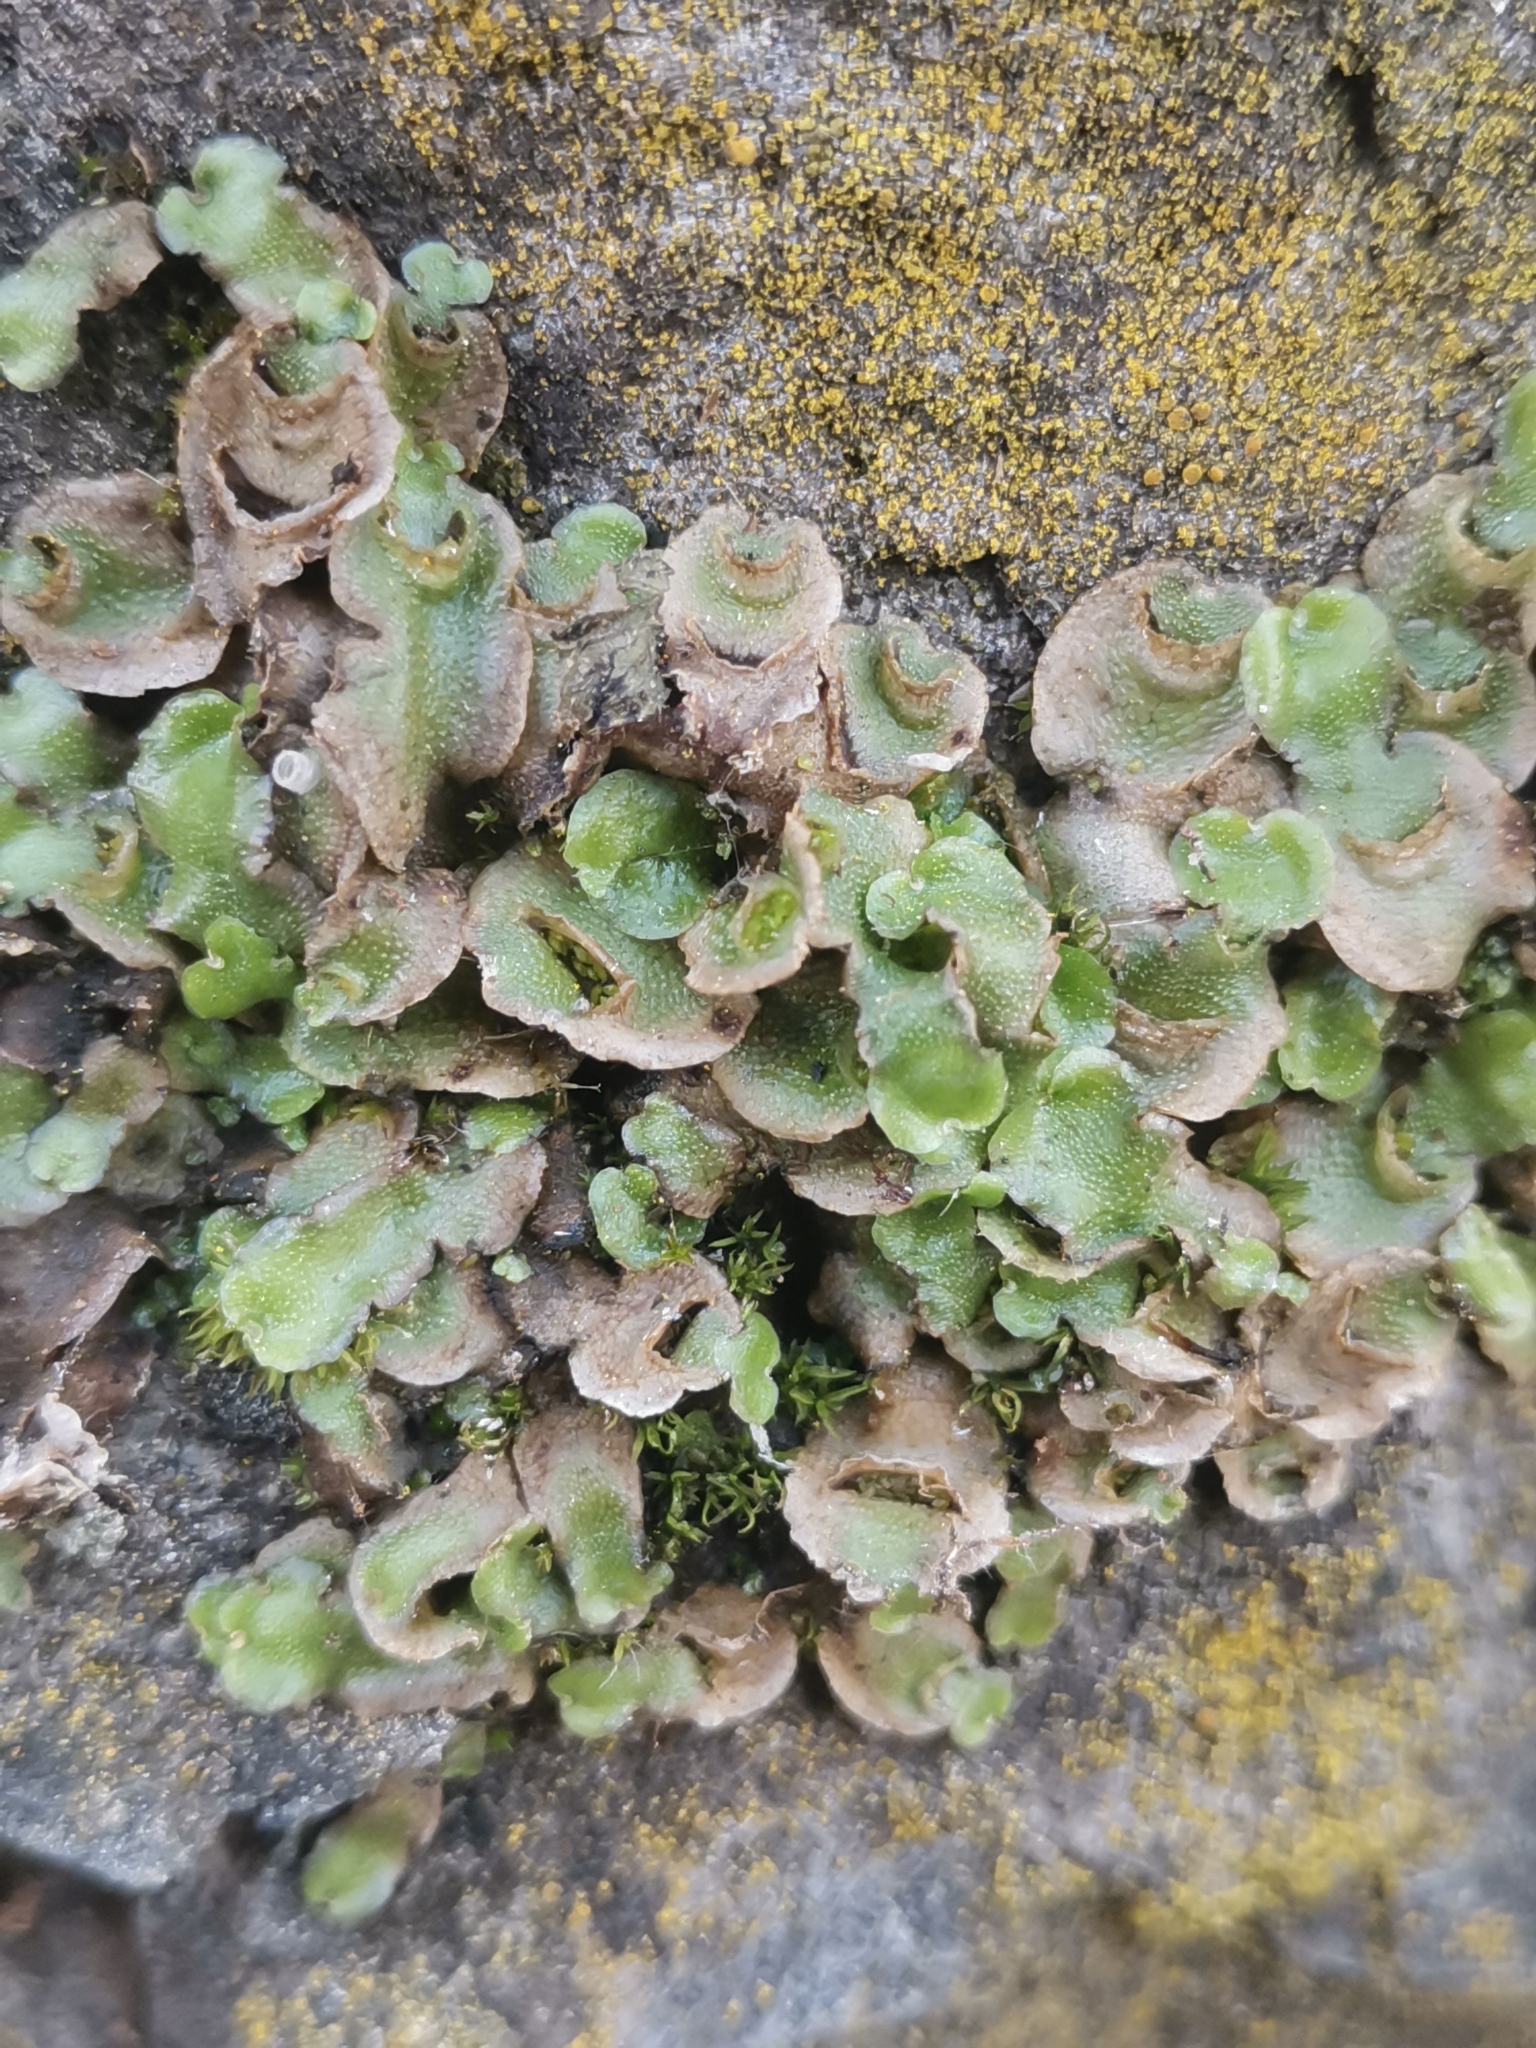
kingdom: Plantae
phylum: Marchantiophyta
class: Marchantiopsida
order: Lunulariales
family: Lunulariaceae
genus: Lunularia
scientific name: Lunularia cruciata
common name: Crescent-cup liverwort
